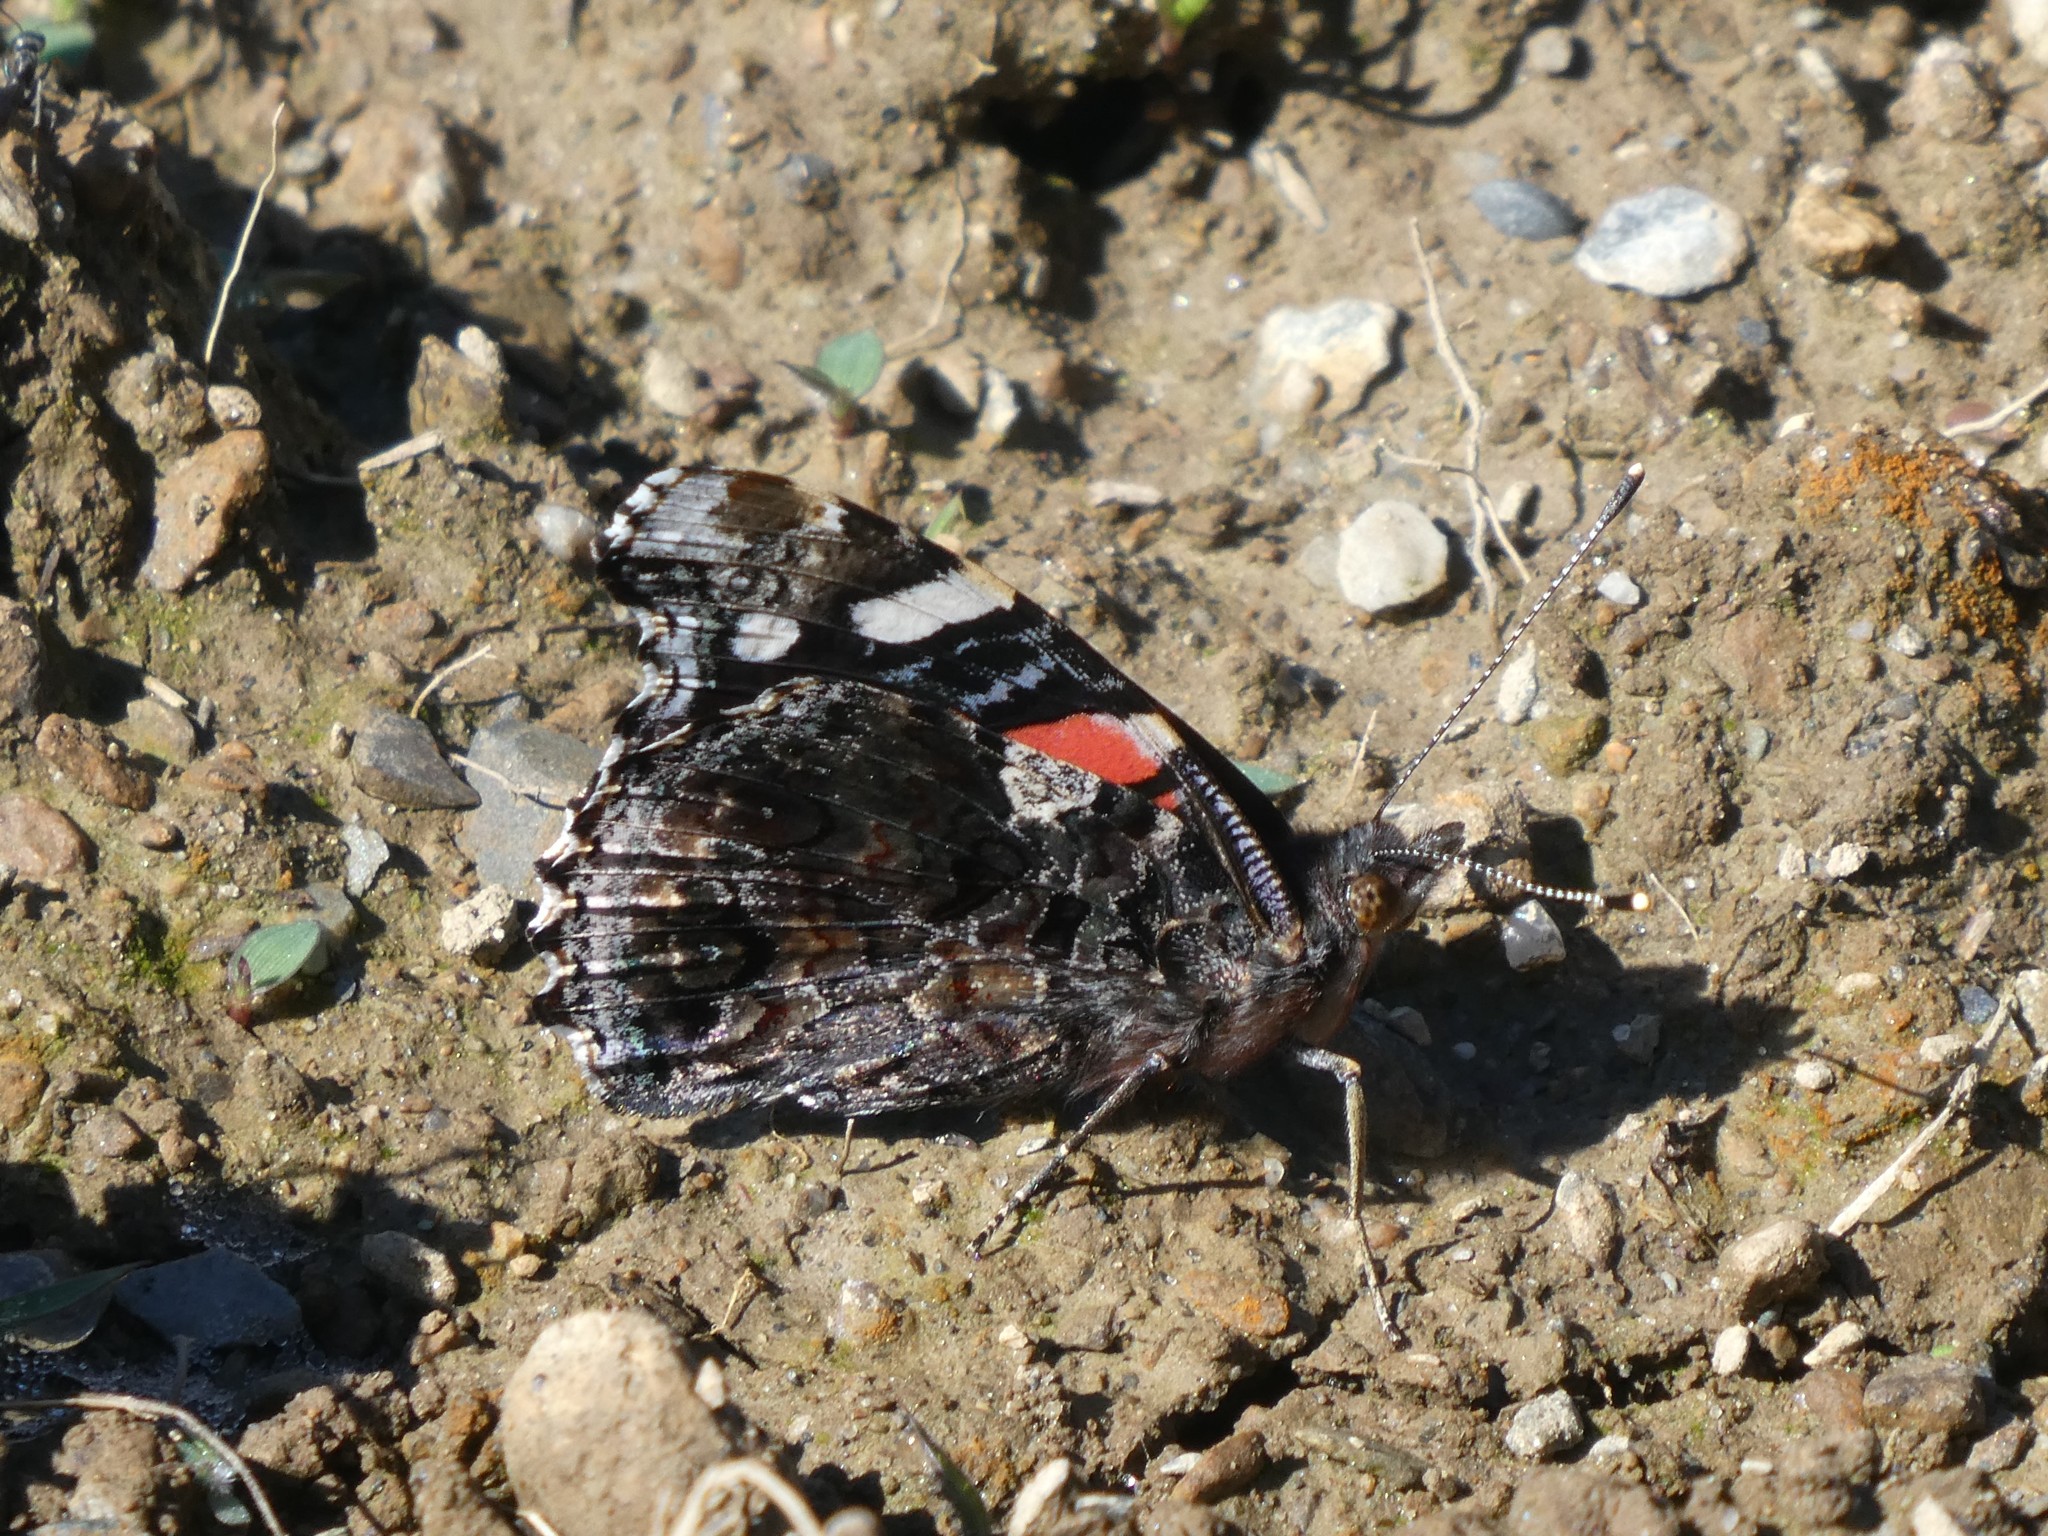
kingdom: Animalia
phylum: Arthropoda
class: Insecta
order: Lepidoptera
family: Nymphalidae
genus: Vanessa
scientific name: Vanessa atalanta
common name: Red admiral
